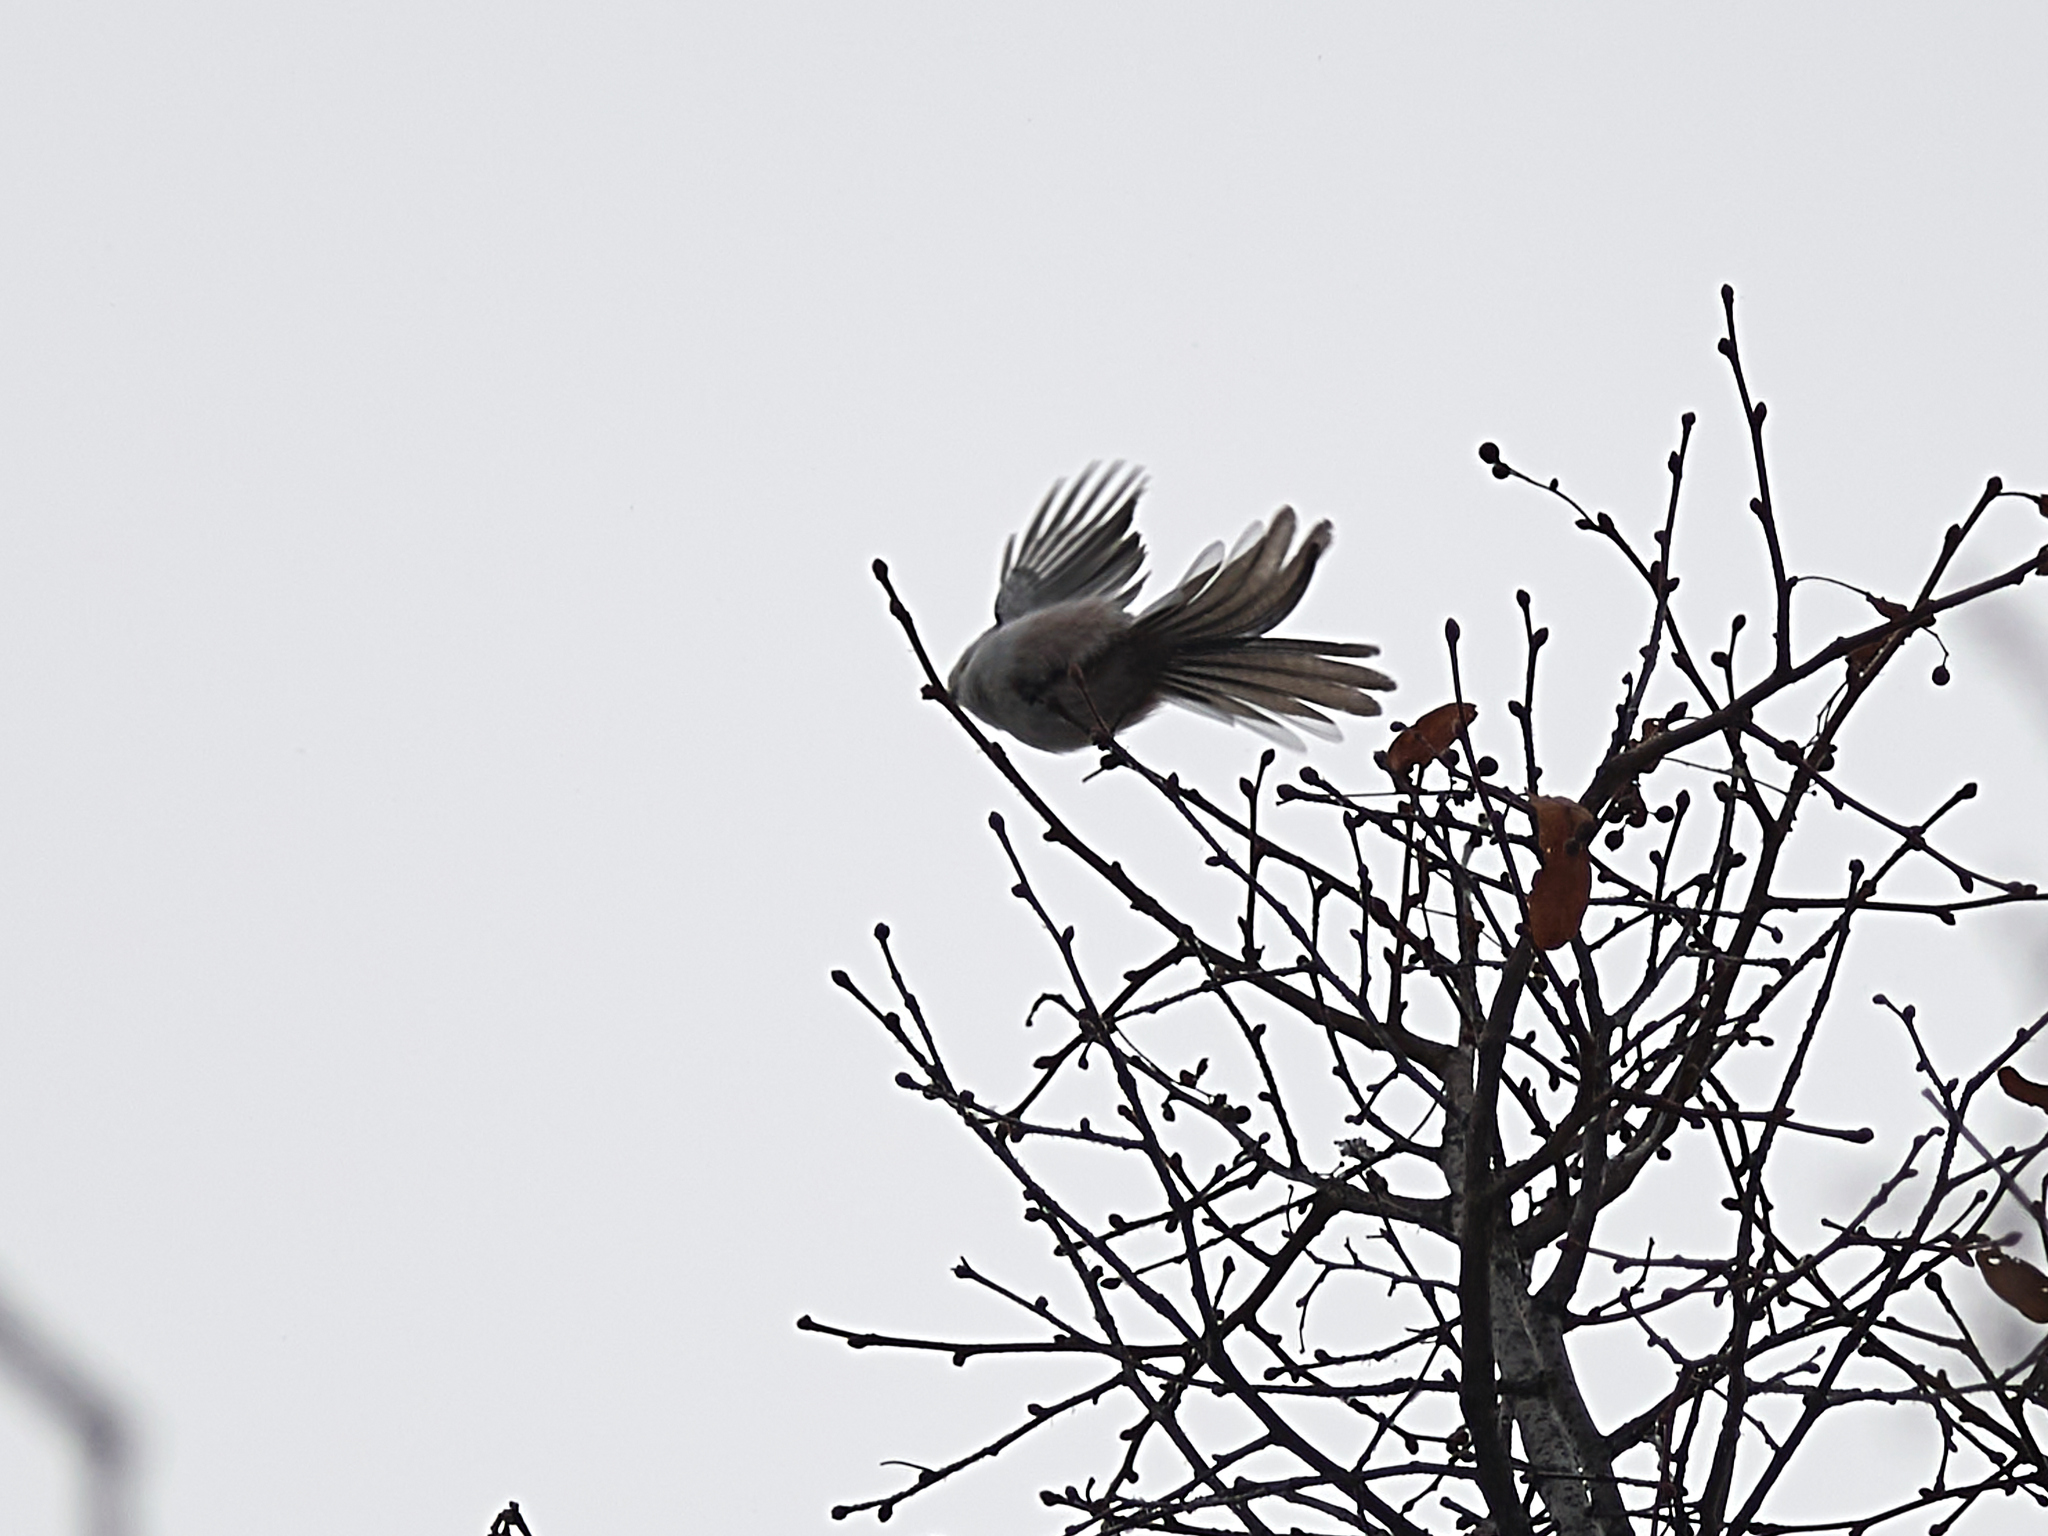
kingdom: Animalia
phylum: Chordata
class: Aves
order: Passeriformes
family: Aegithalidae
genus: Aegithalos
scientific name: Aegithalos caudatus
